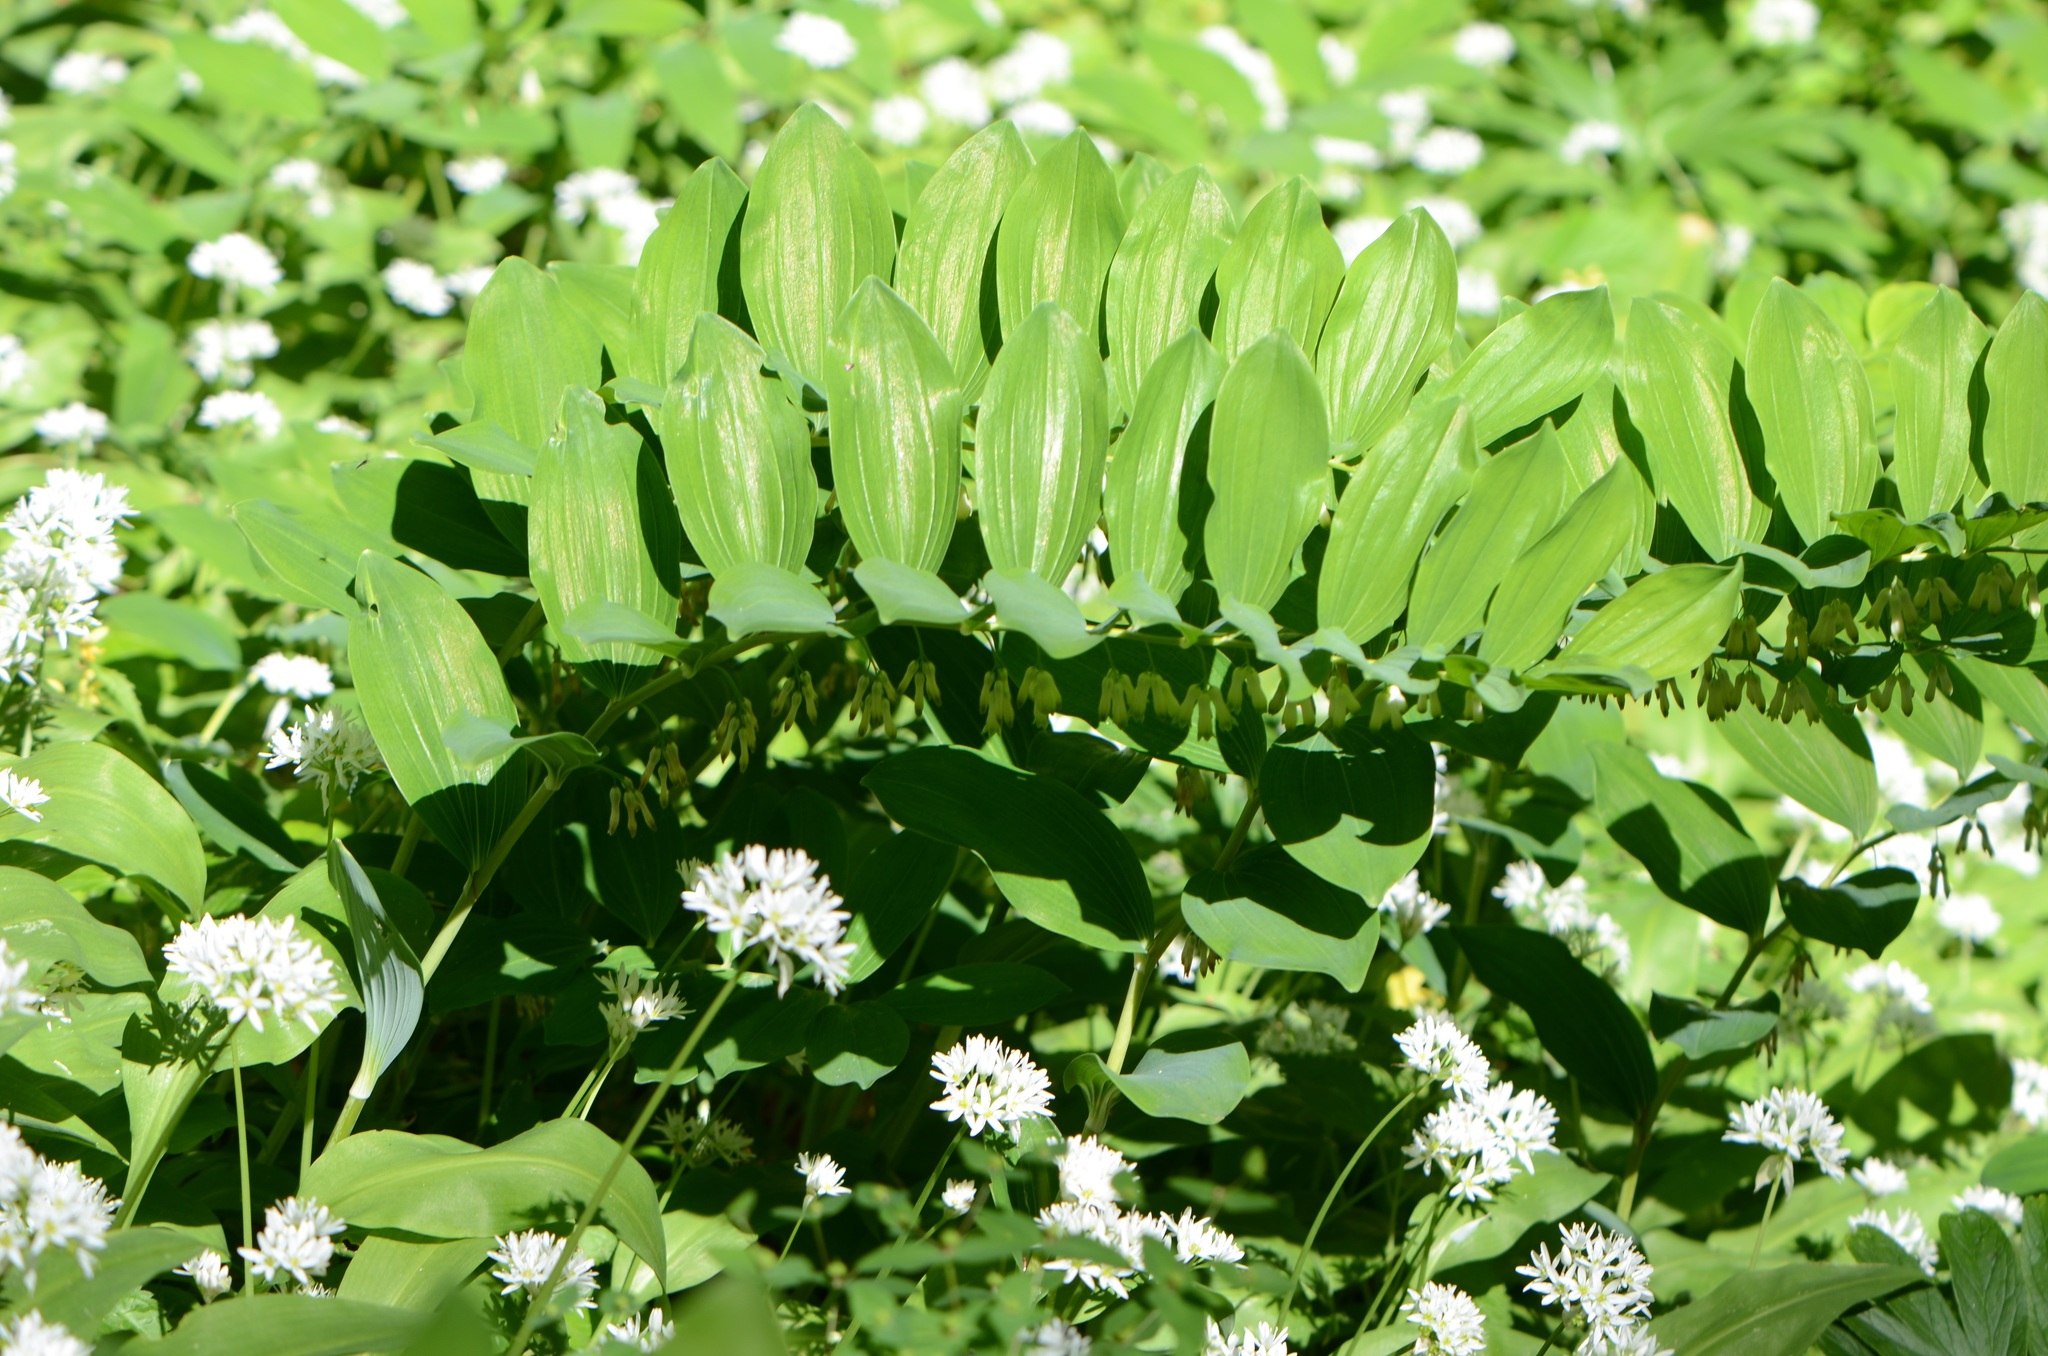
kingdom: Plantae
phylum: Tracheophyta
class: Liliopsida
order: Asparagales
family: Amaryllidaceae
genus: Allium
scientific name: Allium ursinum
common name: Ramsons
